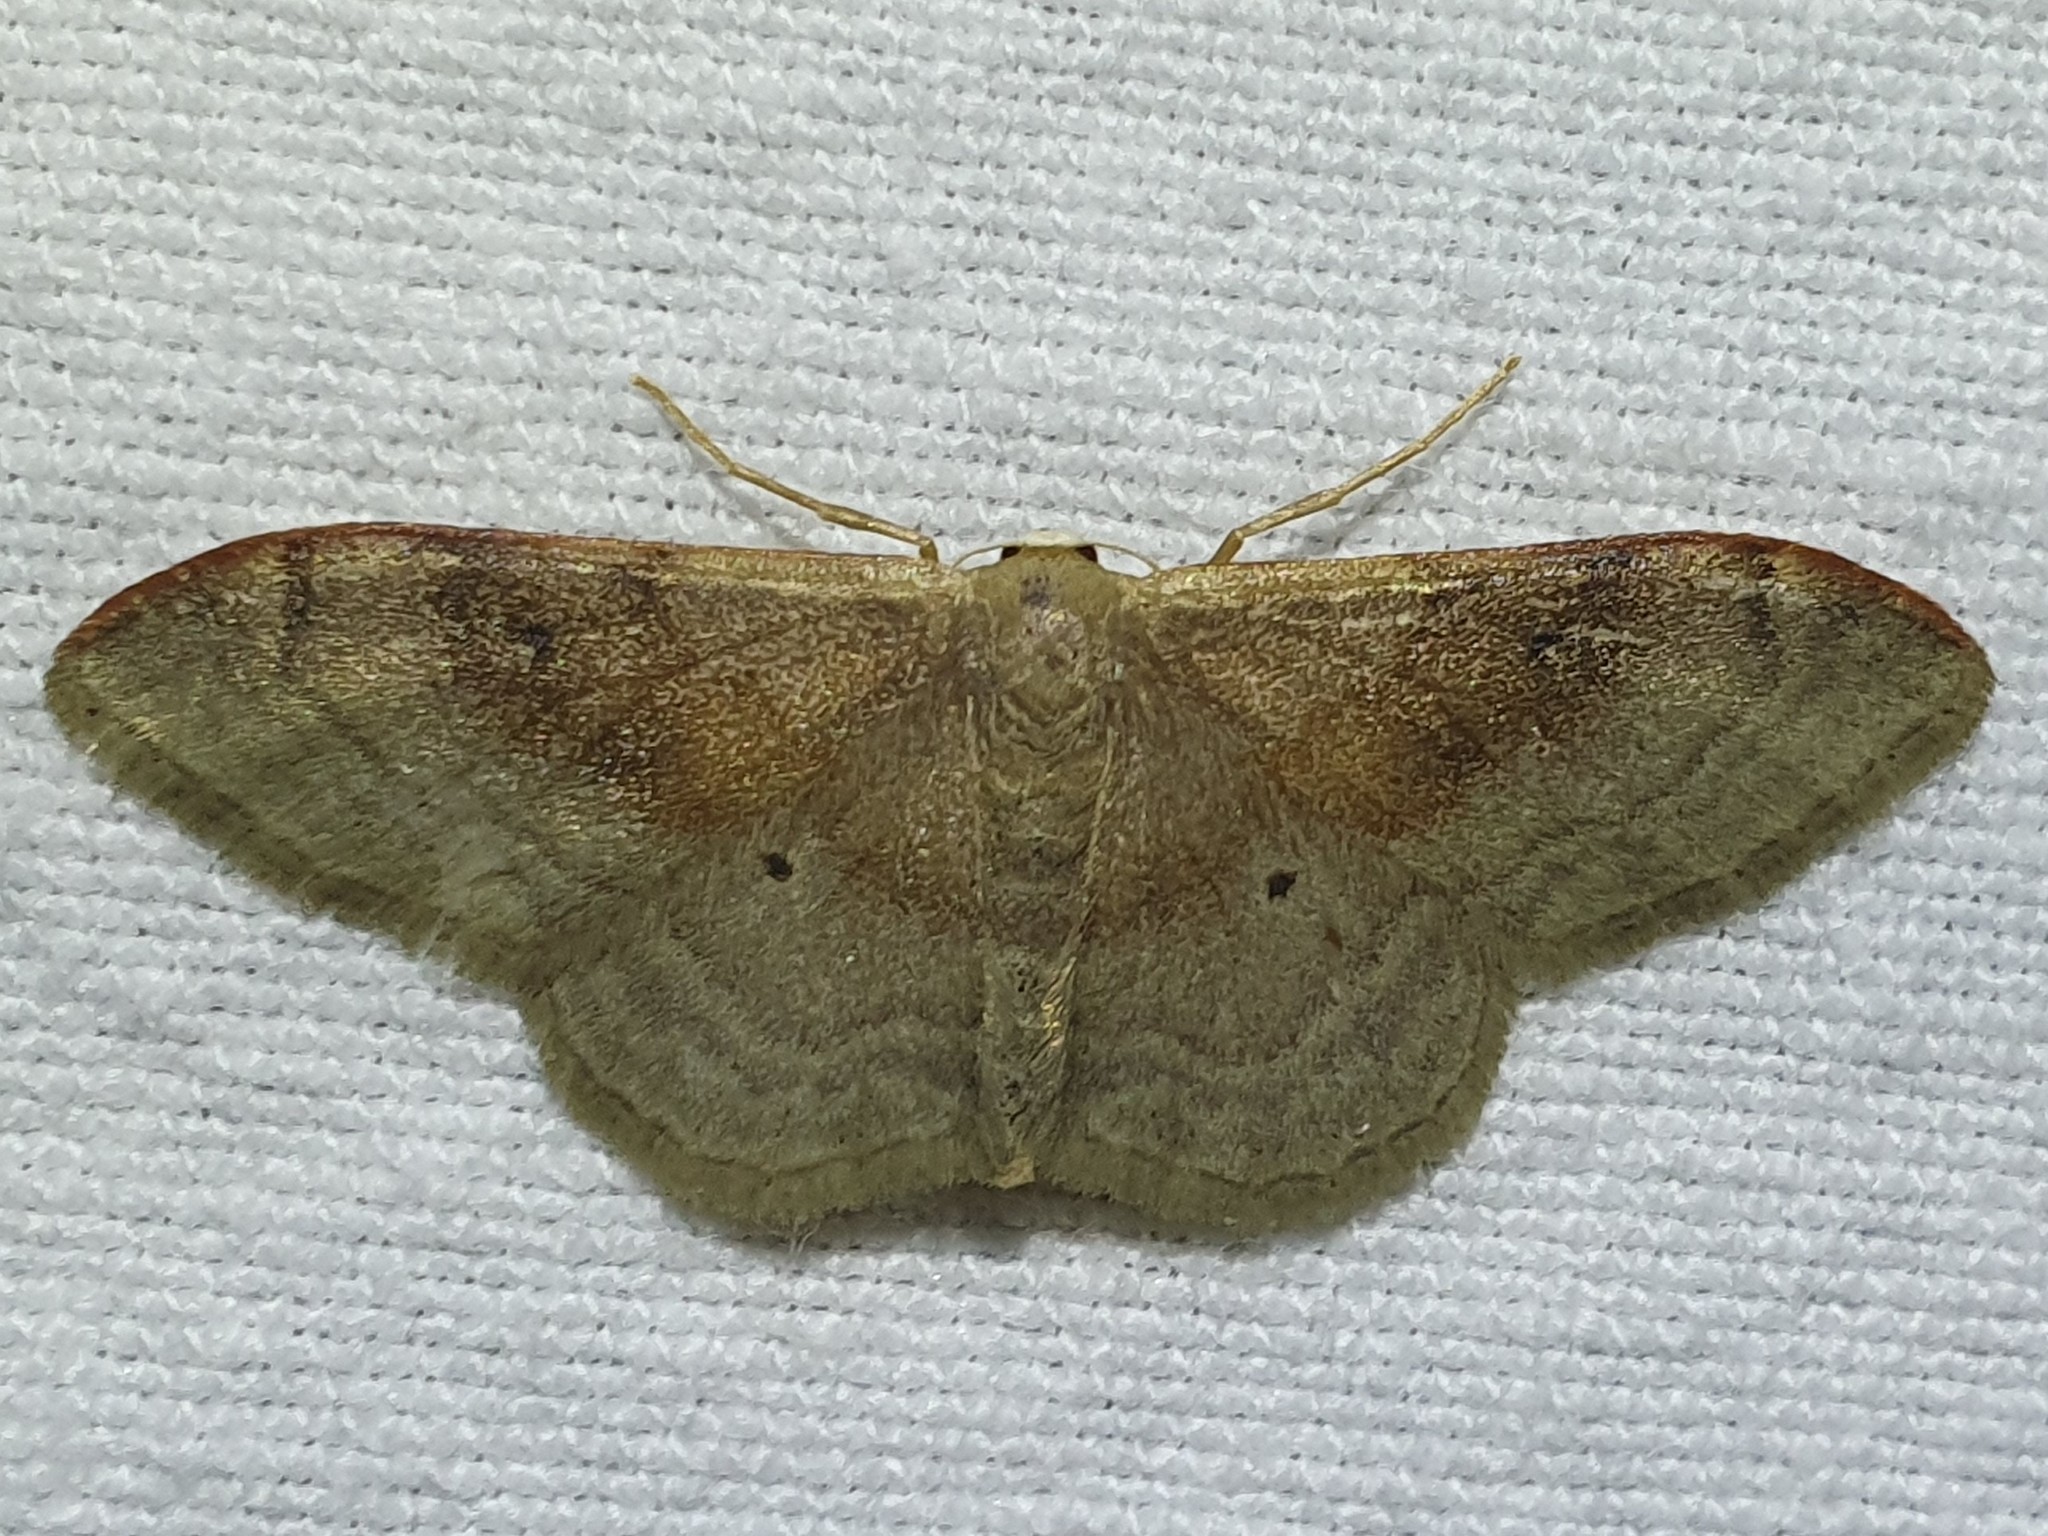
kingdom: Animalia
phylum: Arthropoda
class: Insecta
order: Lepidoptera
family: Geometridae
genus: Idaea
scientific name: Idaea degeneraria
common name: Portland ribbon wave
